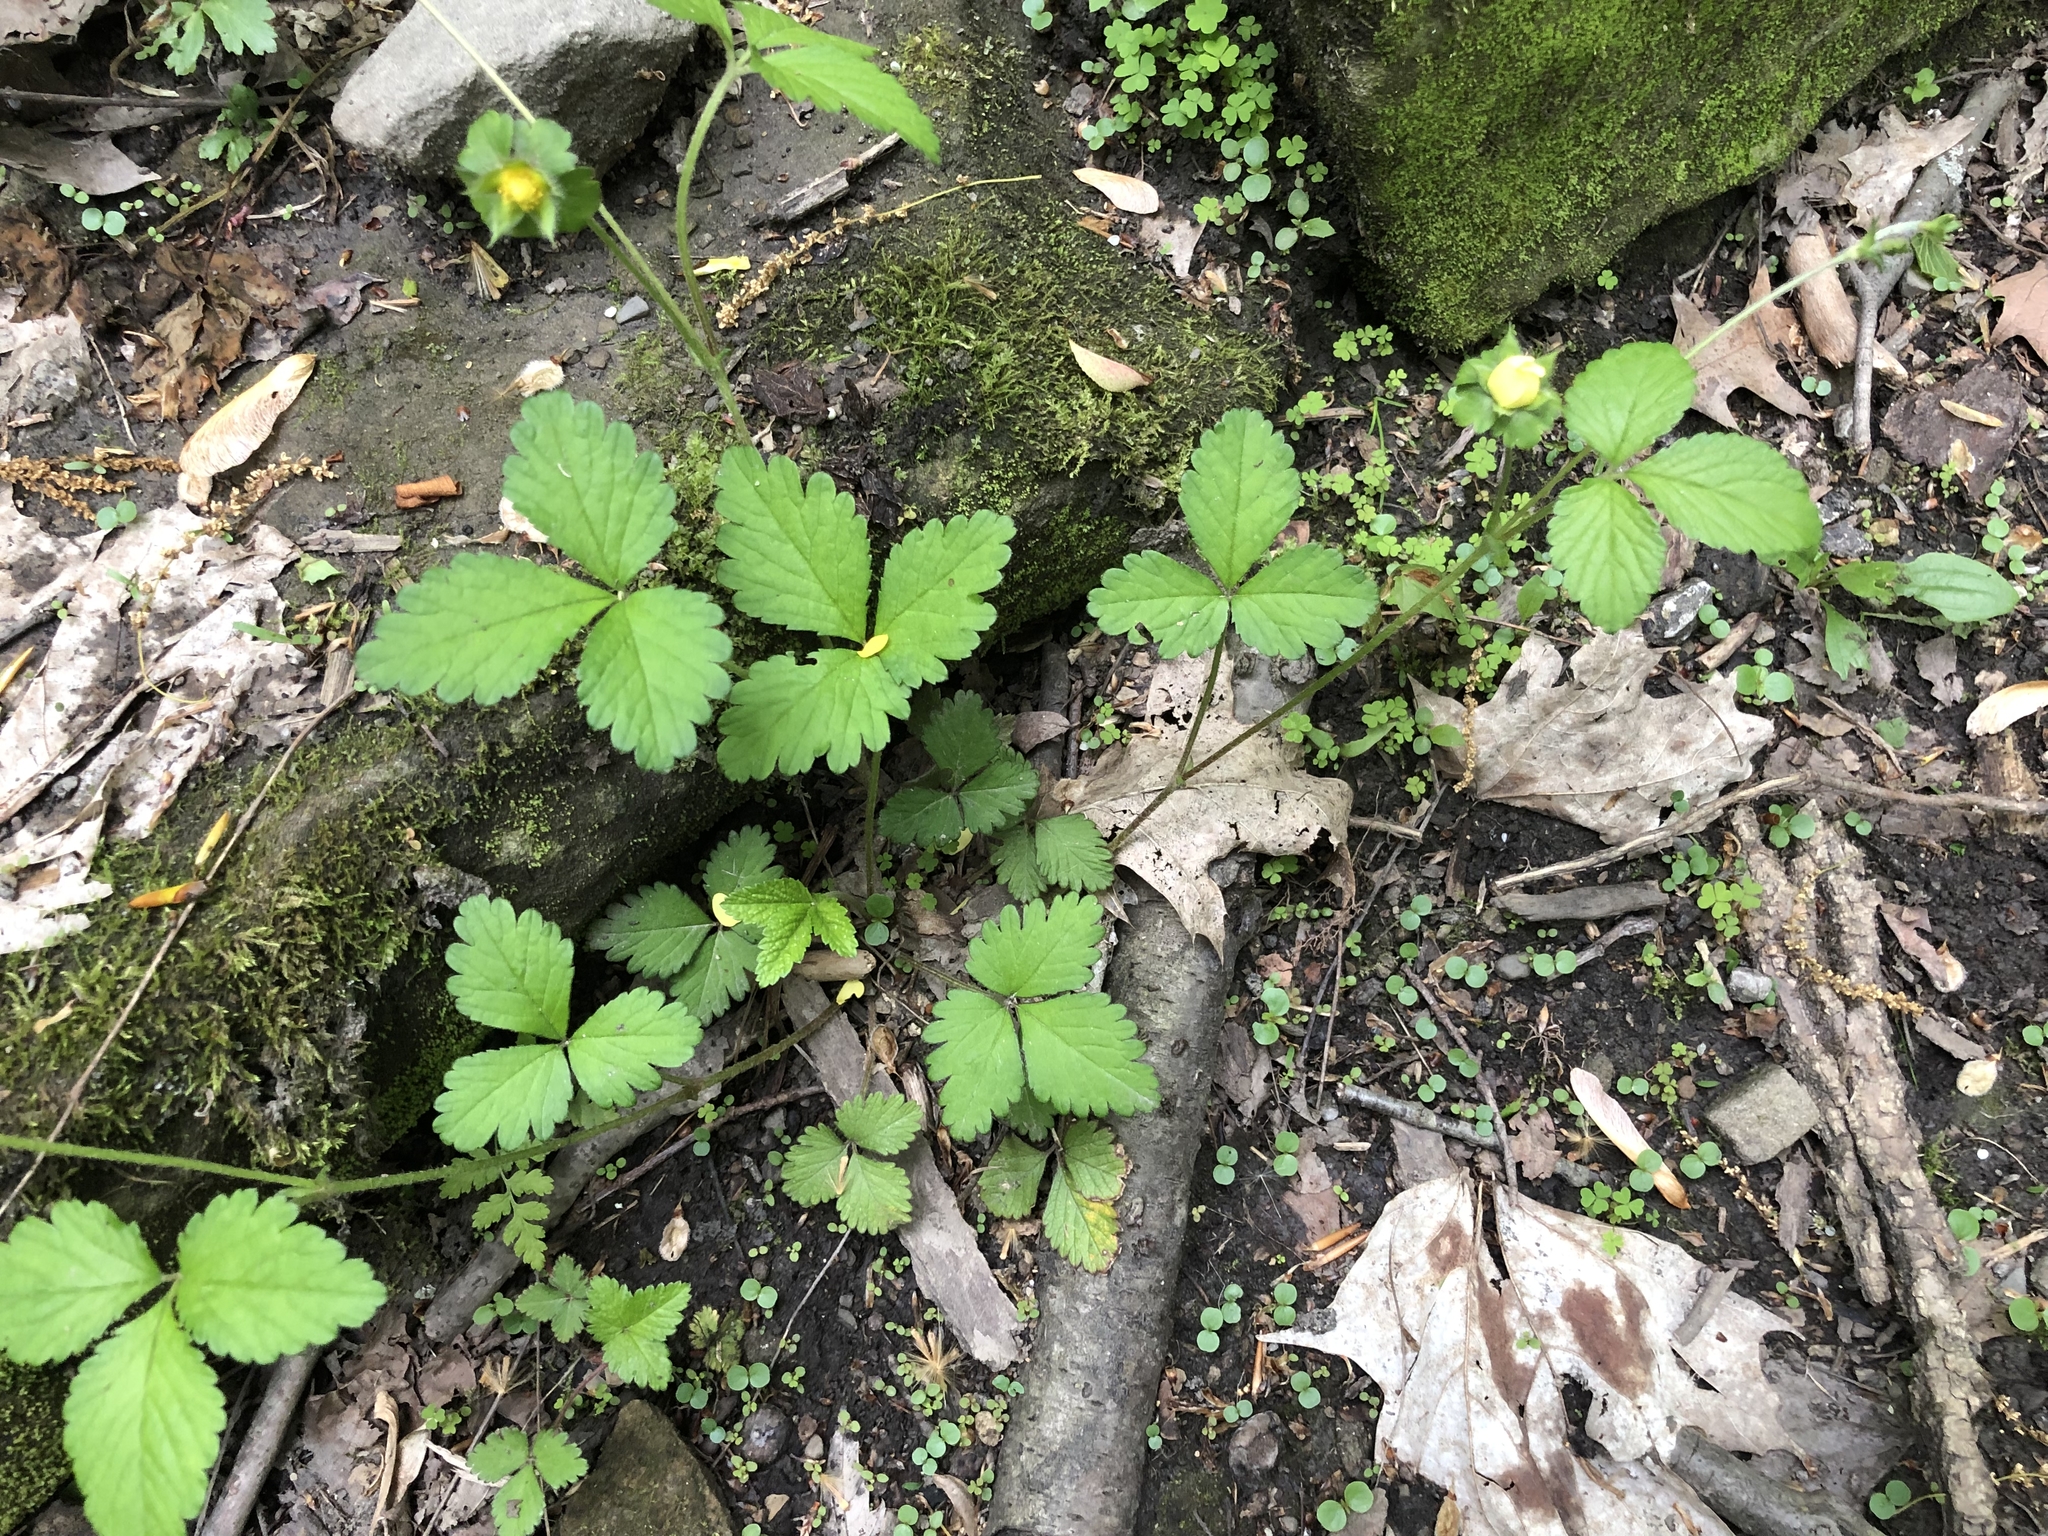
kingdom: Plantae
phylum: Tracheophyta
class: Magnoliopsida
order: Rosales
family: Rosaceae
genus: Potentilla
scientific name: Potentilla indica
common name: Yellow-flowered strawberry
